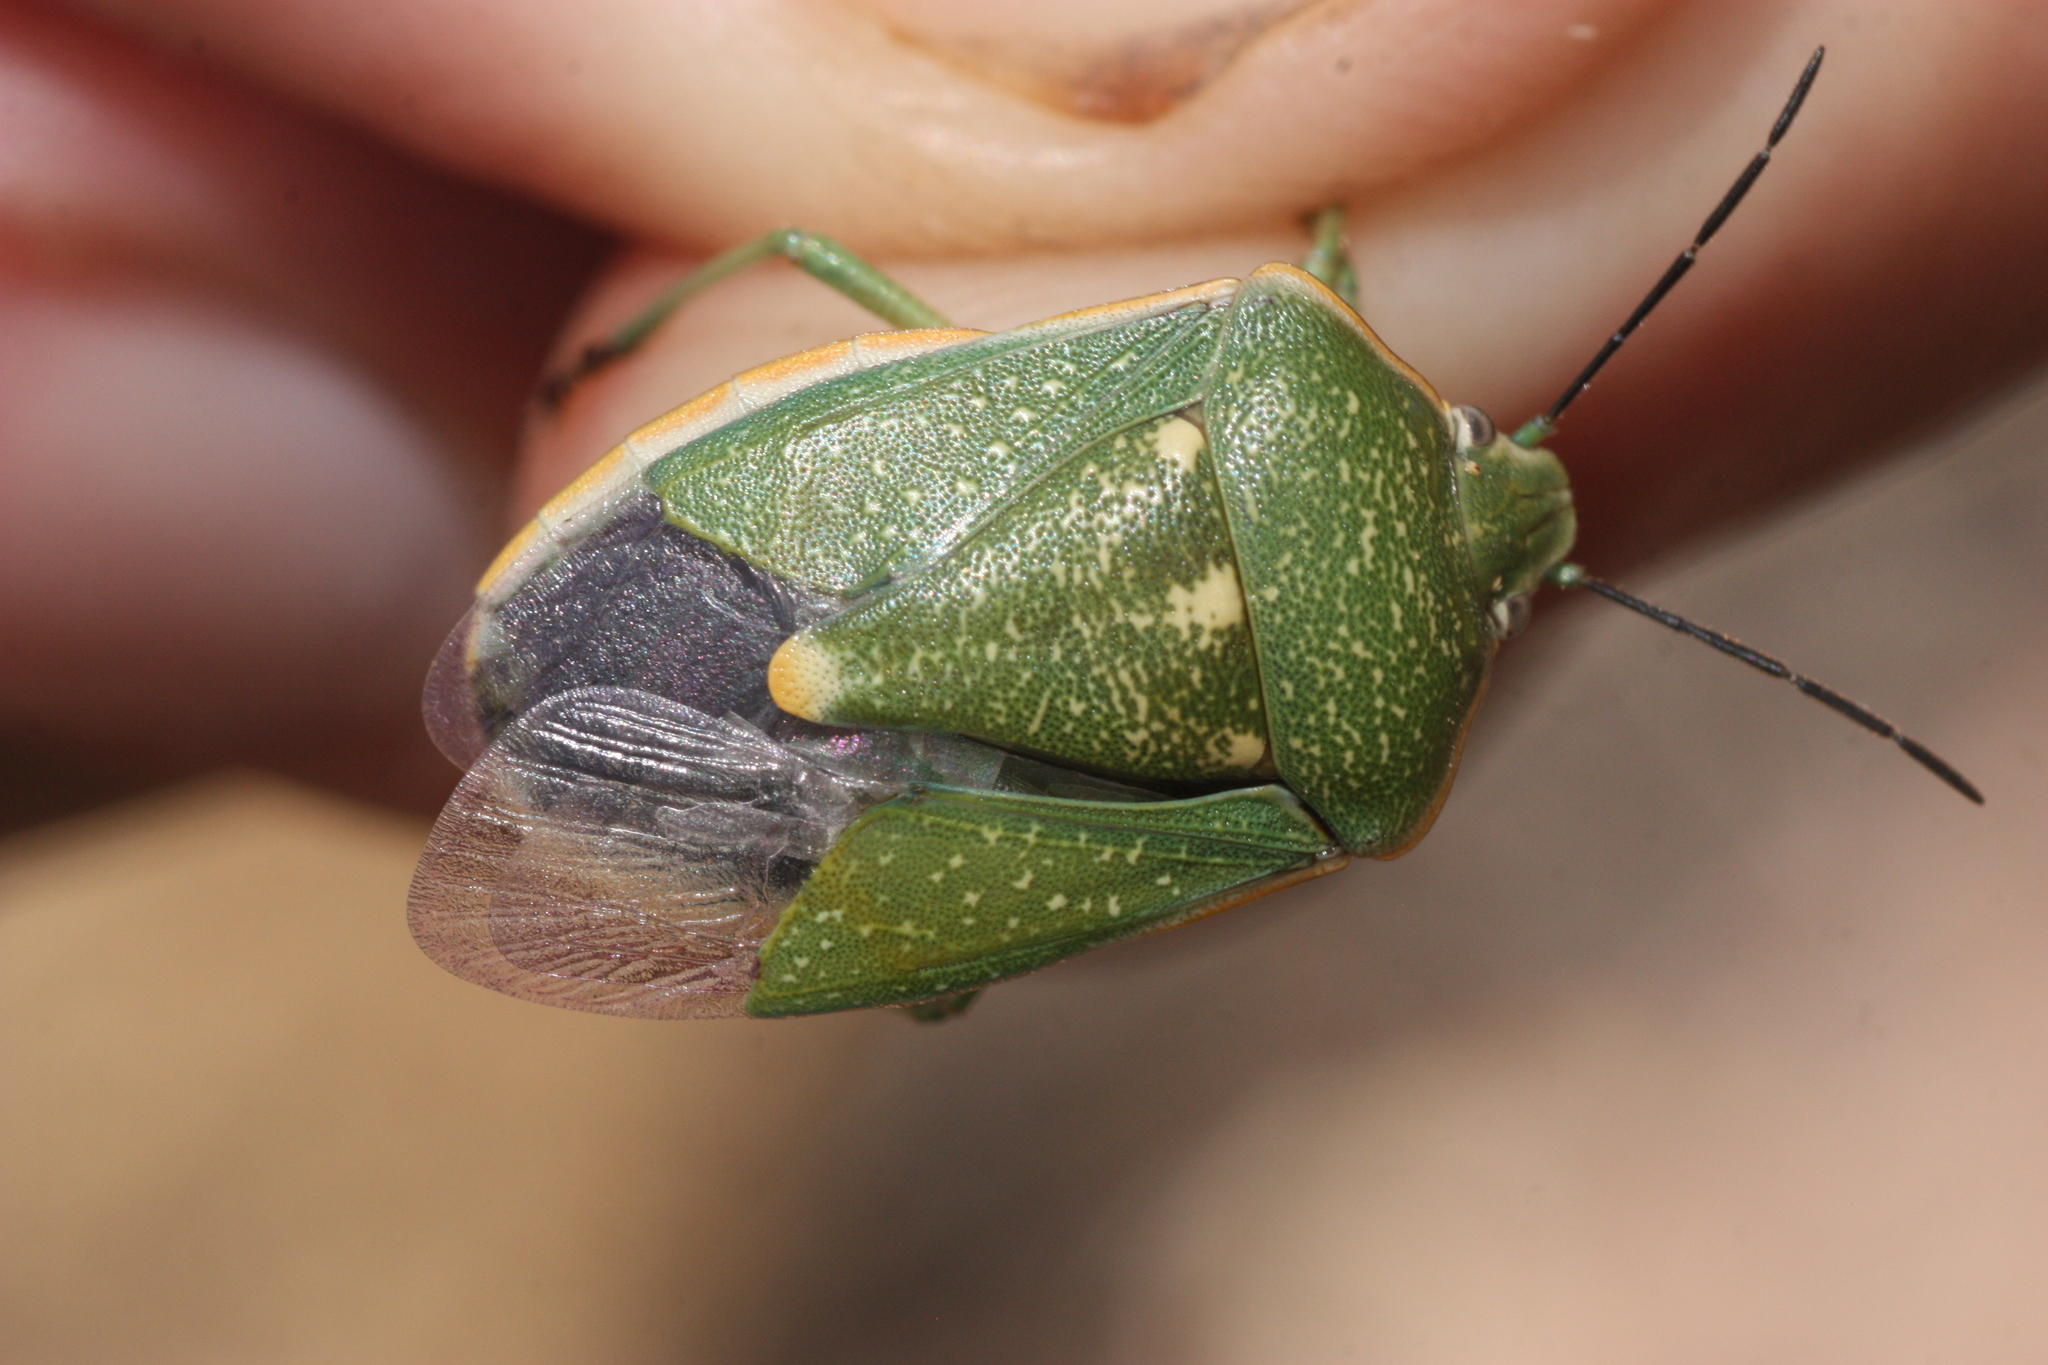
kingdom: Animalia
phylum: Arthropoda
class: Insecta
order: Hemiptera
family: Pentatomidae
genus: Chlorochroa
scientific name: Chlorochroa sayi
